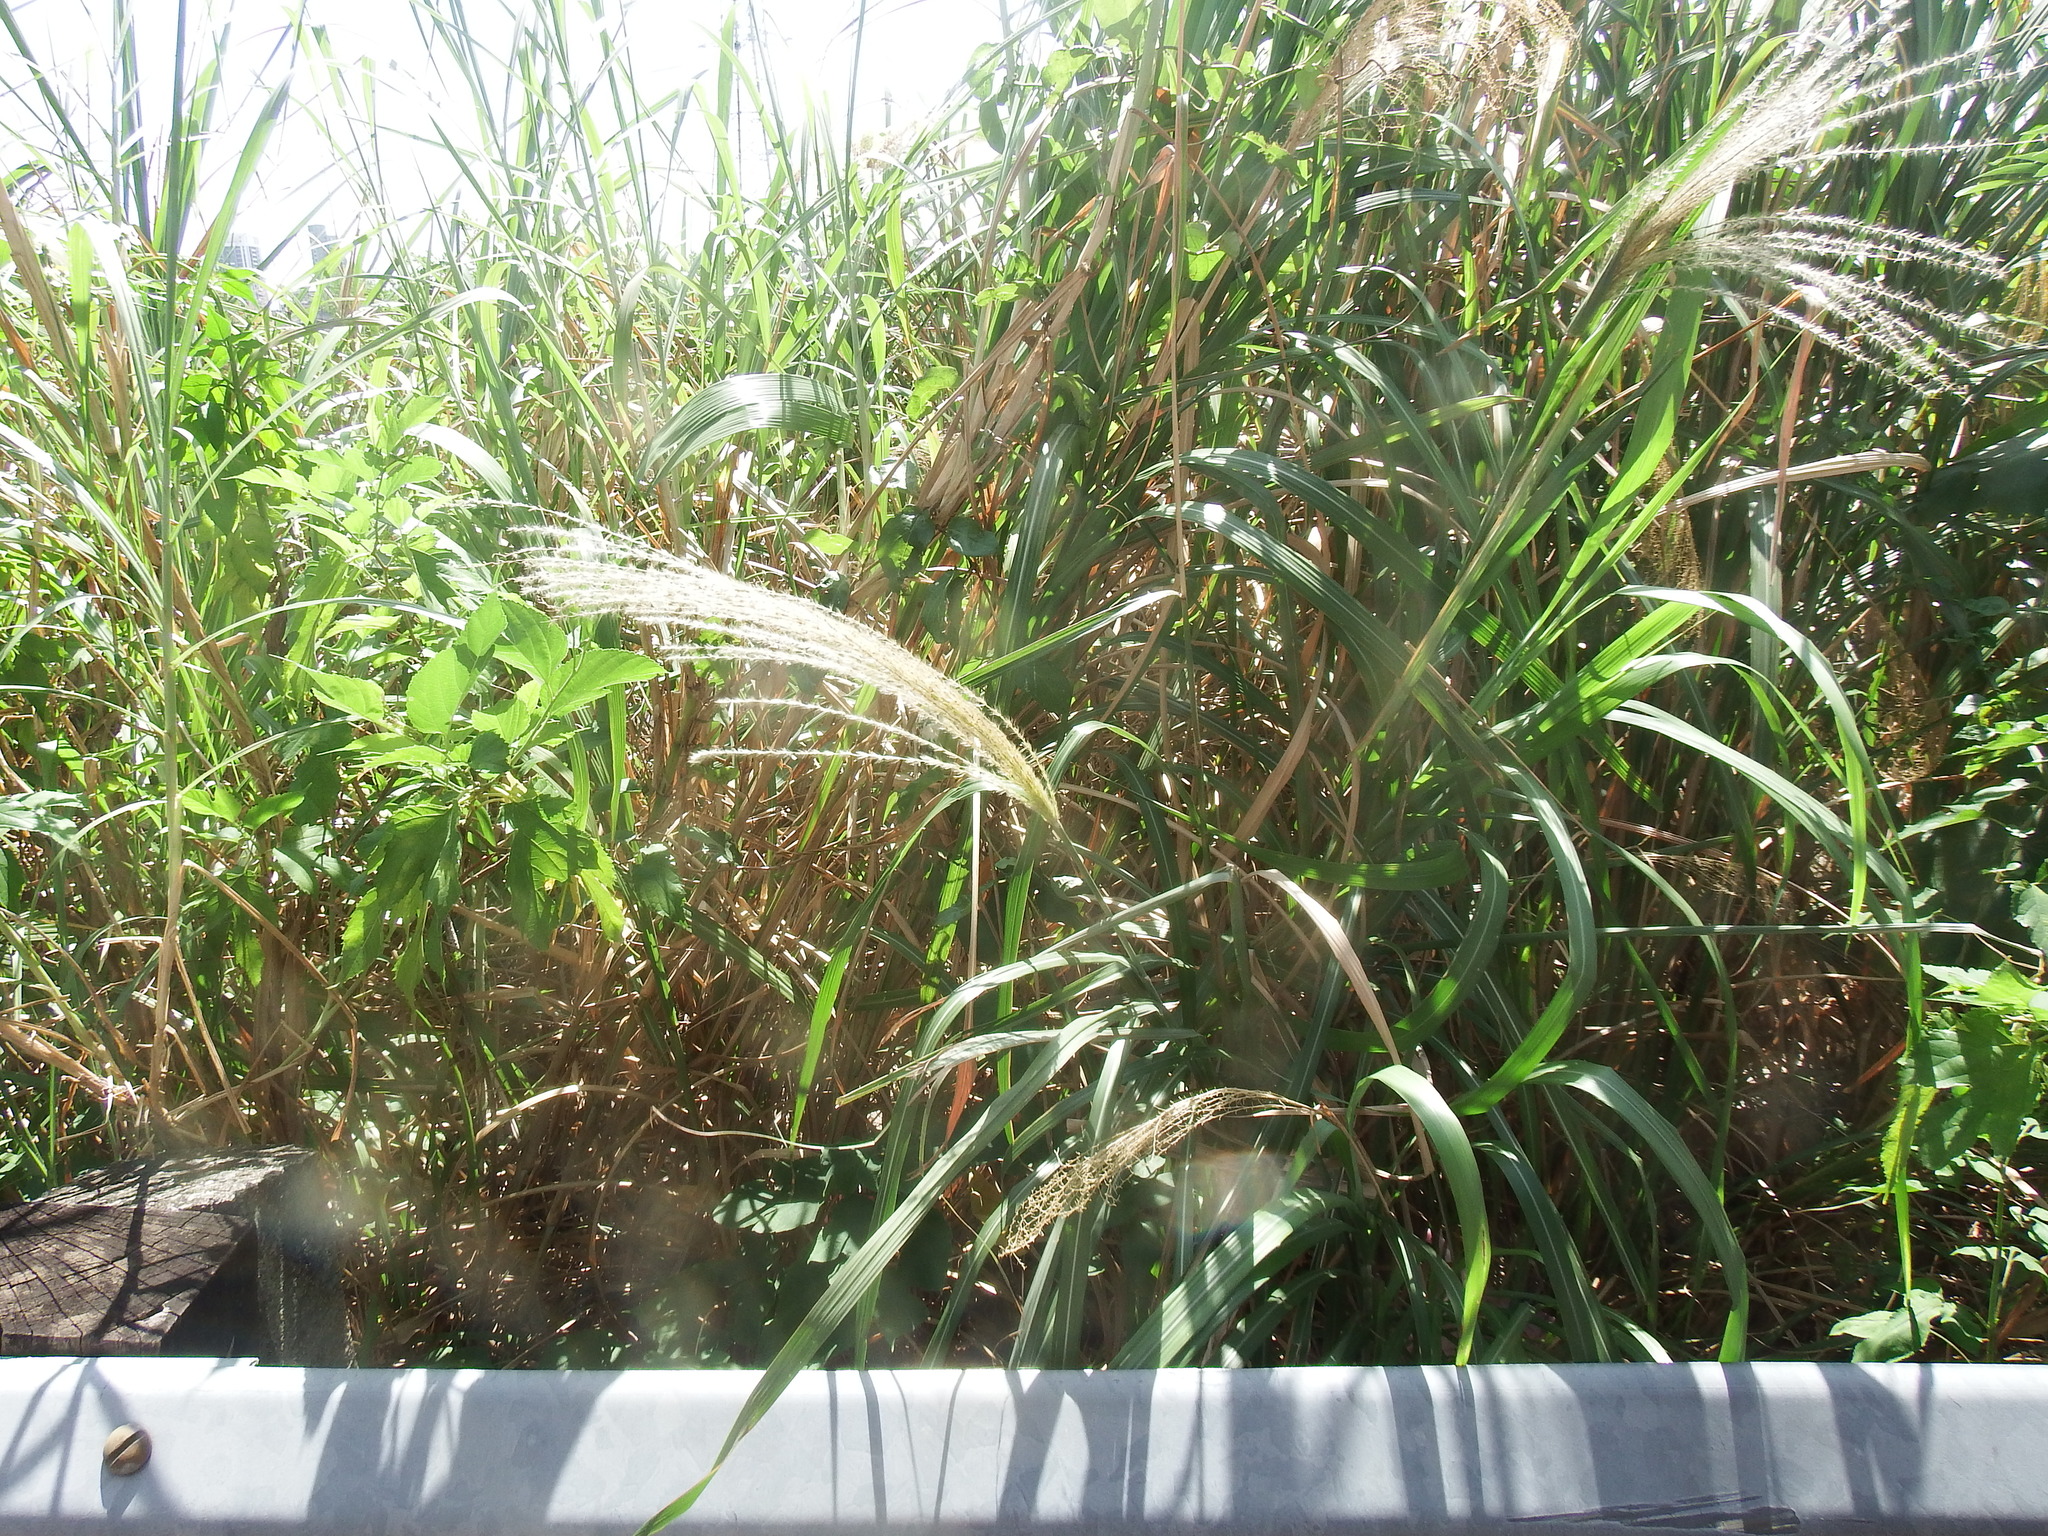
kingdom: Plantae
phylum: Tracheophyta
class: Liliopsida
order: Poales
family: Poaceae
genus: Miscanthus
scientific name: Miscanthus floridulus
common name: Pacific island silvergrass
